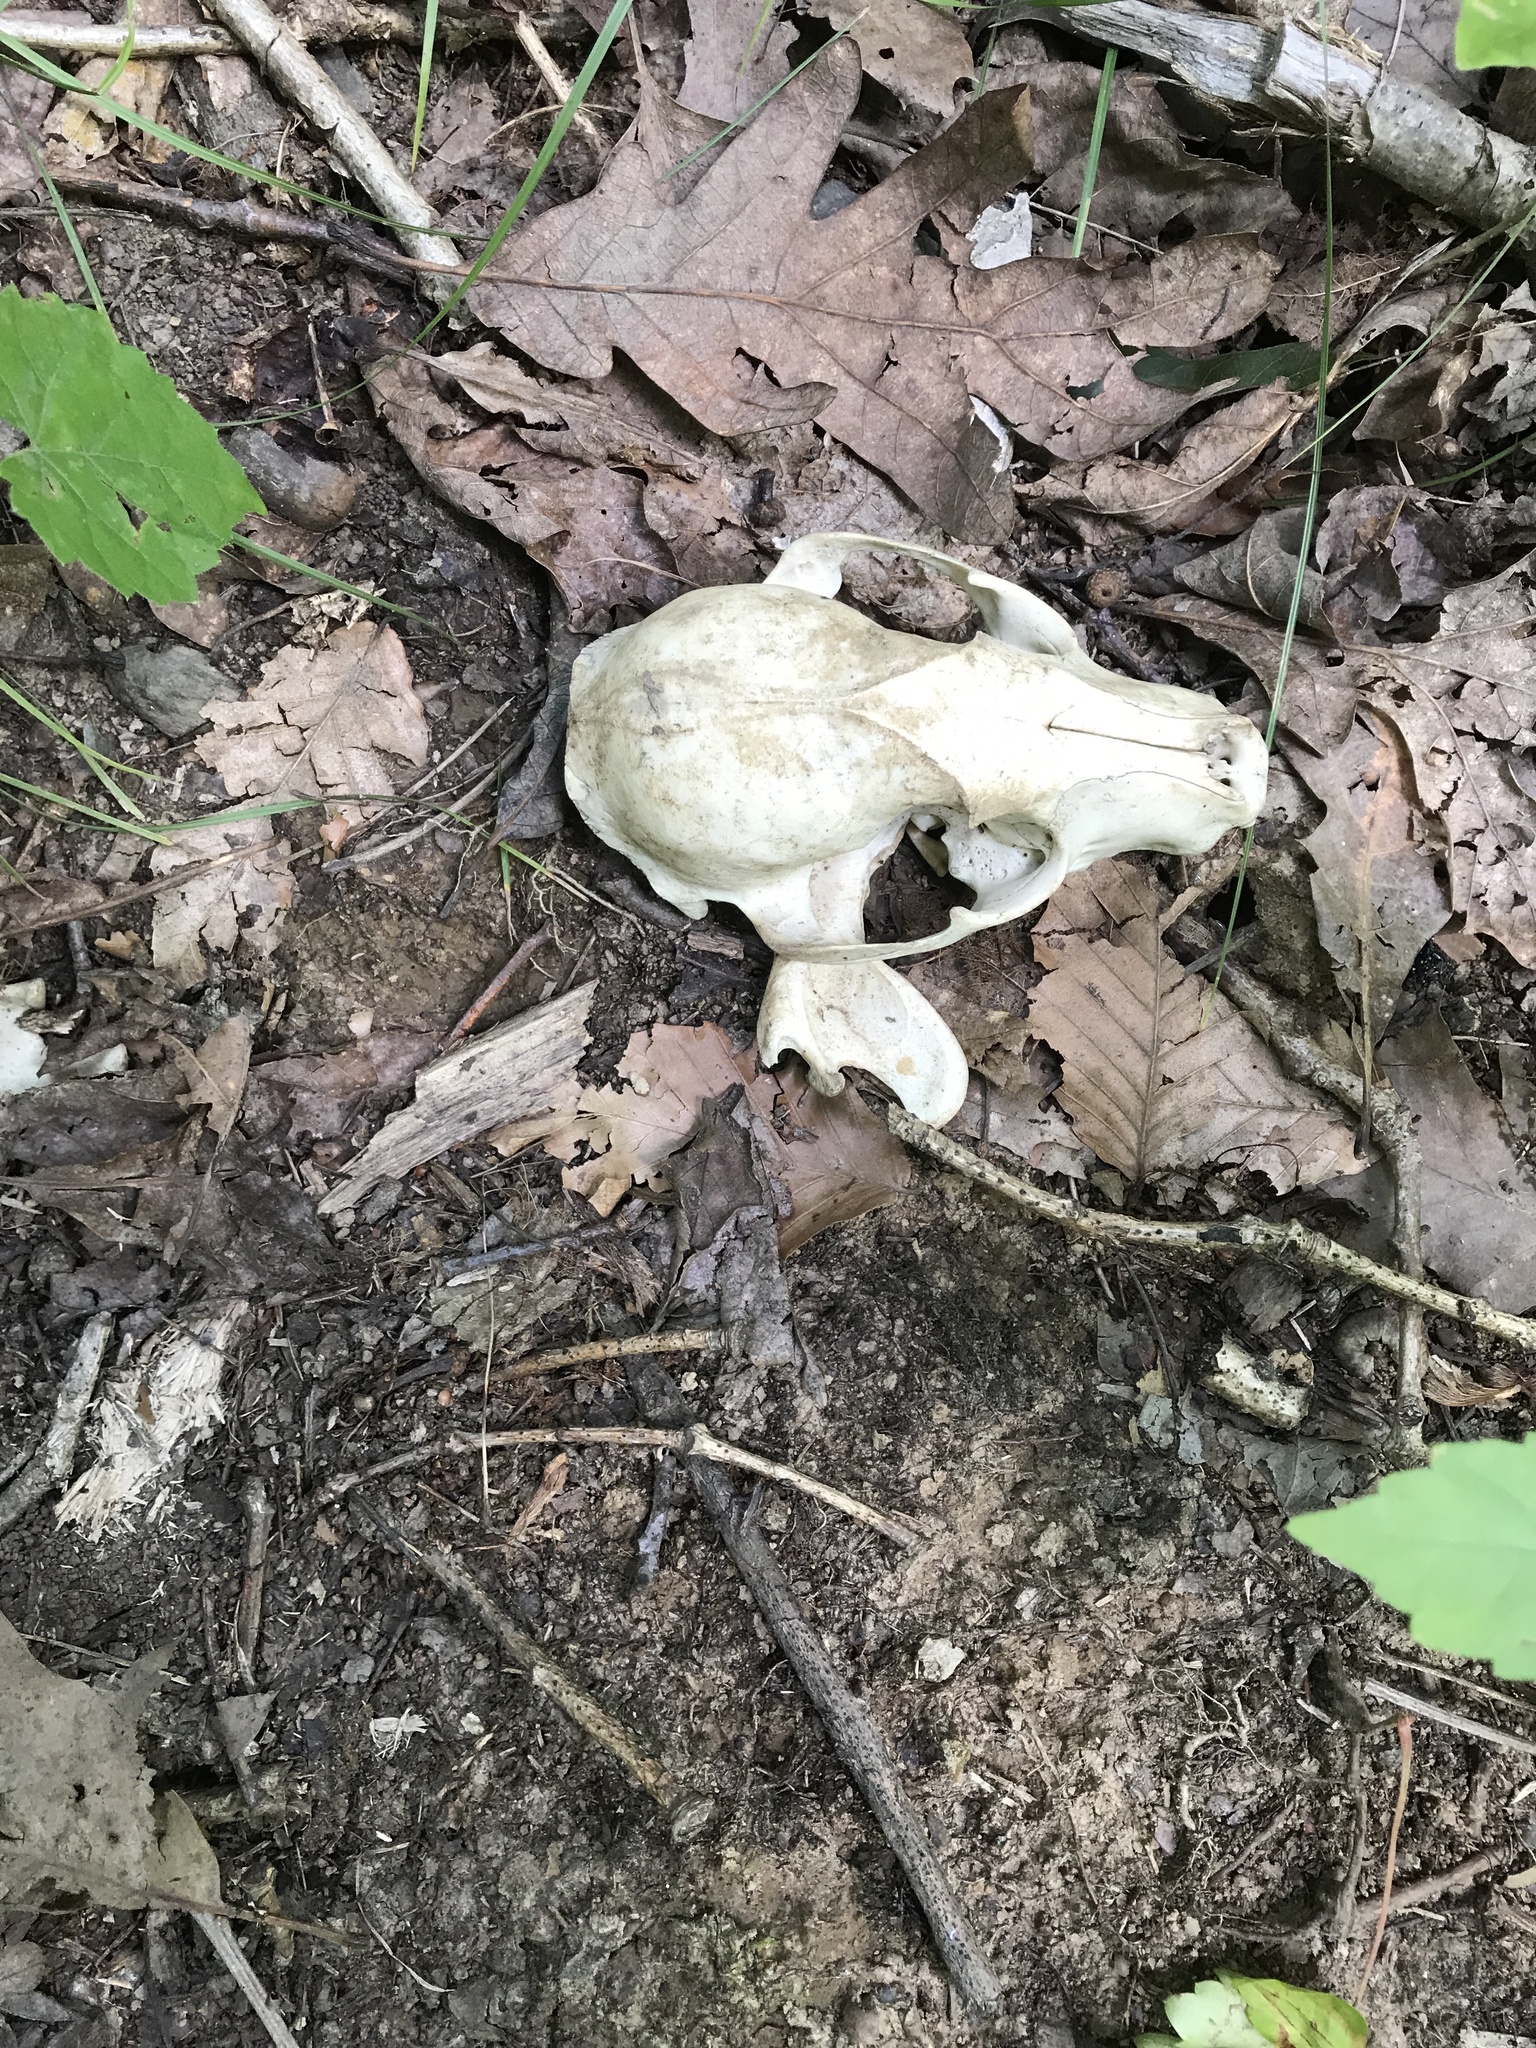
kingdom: Animalia
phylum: Chordata
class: Mammalia
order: Carnivora
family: Procyonidae
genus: Procyon
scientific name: Procyon lotor
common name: Raccoon
